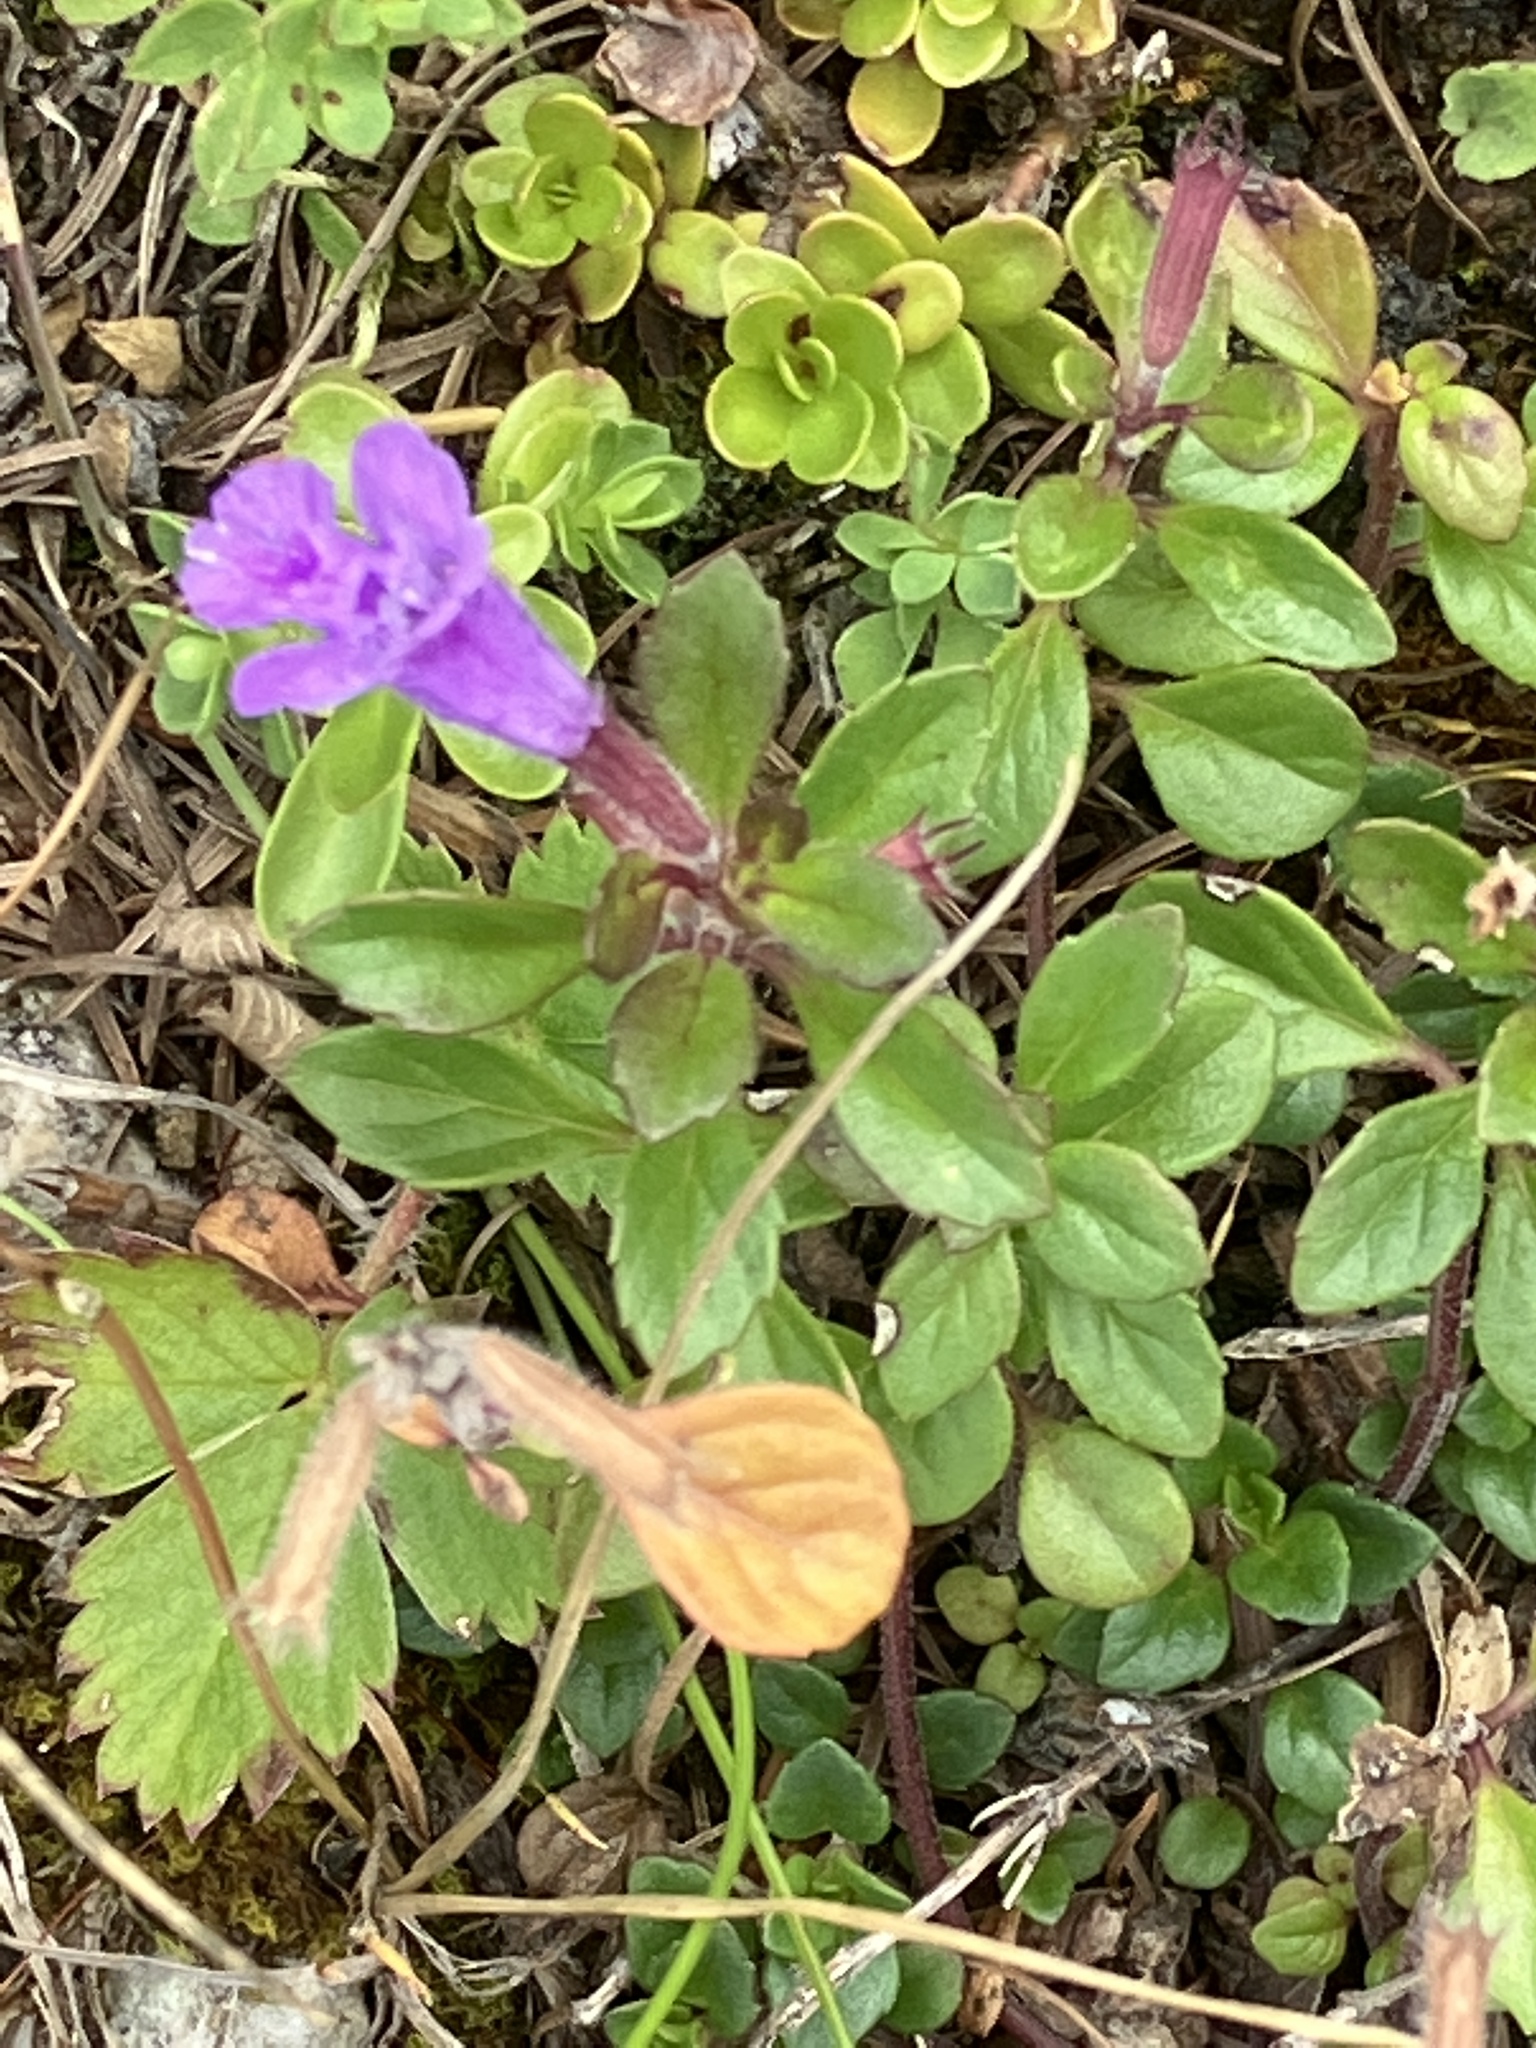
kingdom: Plantae
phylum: Tracheophyta
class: Magnoliopsida
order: Lamiales
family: Lamiaceae
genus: Clinopodium
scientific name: Clinopodium alpinum
